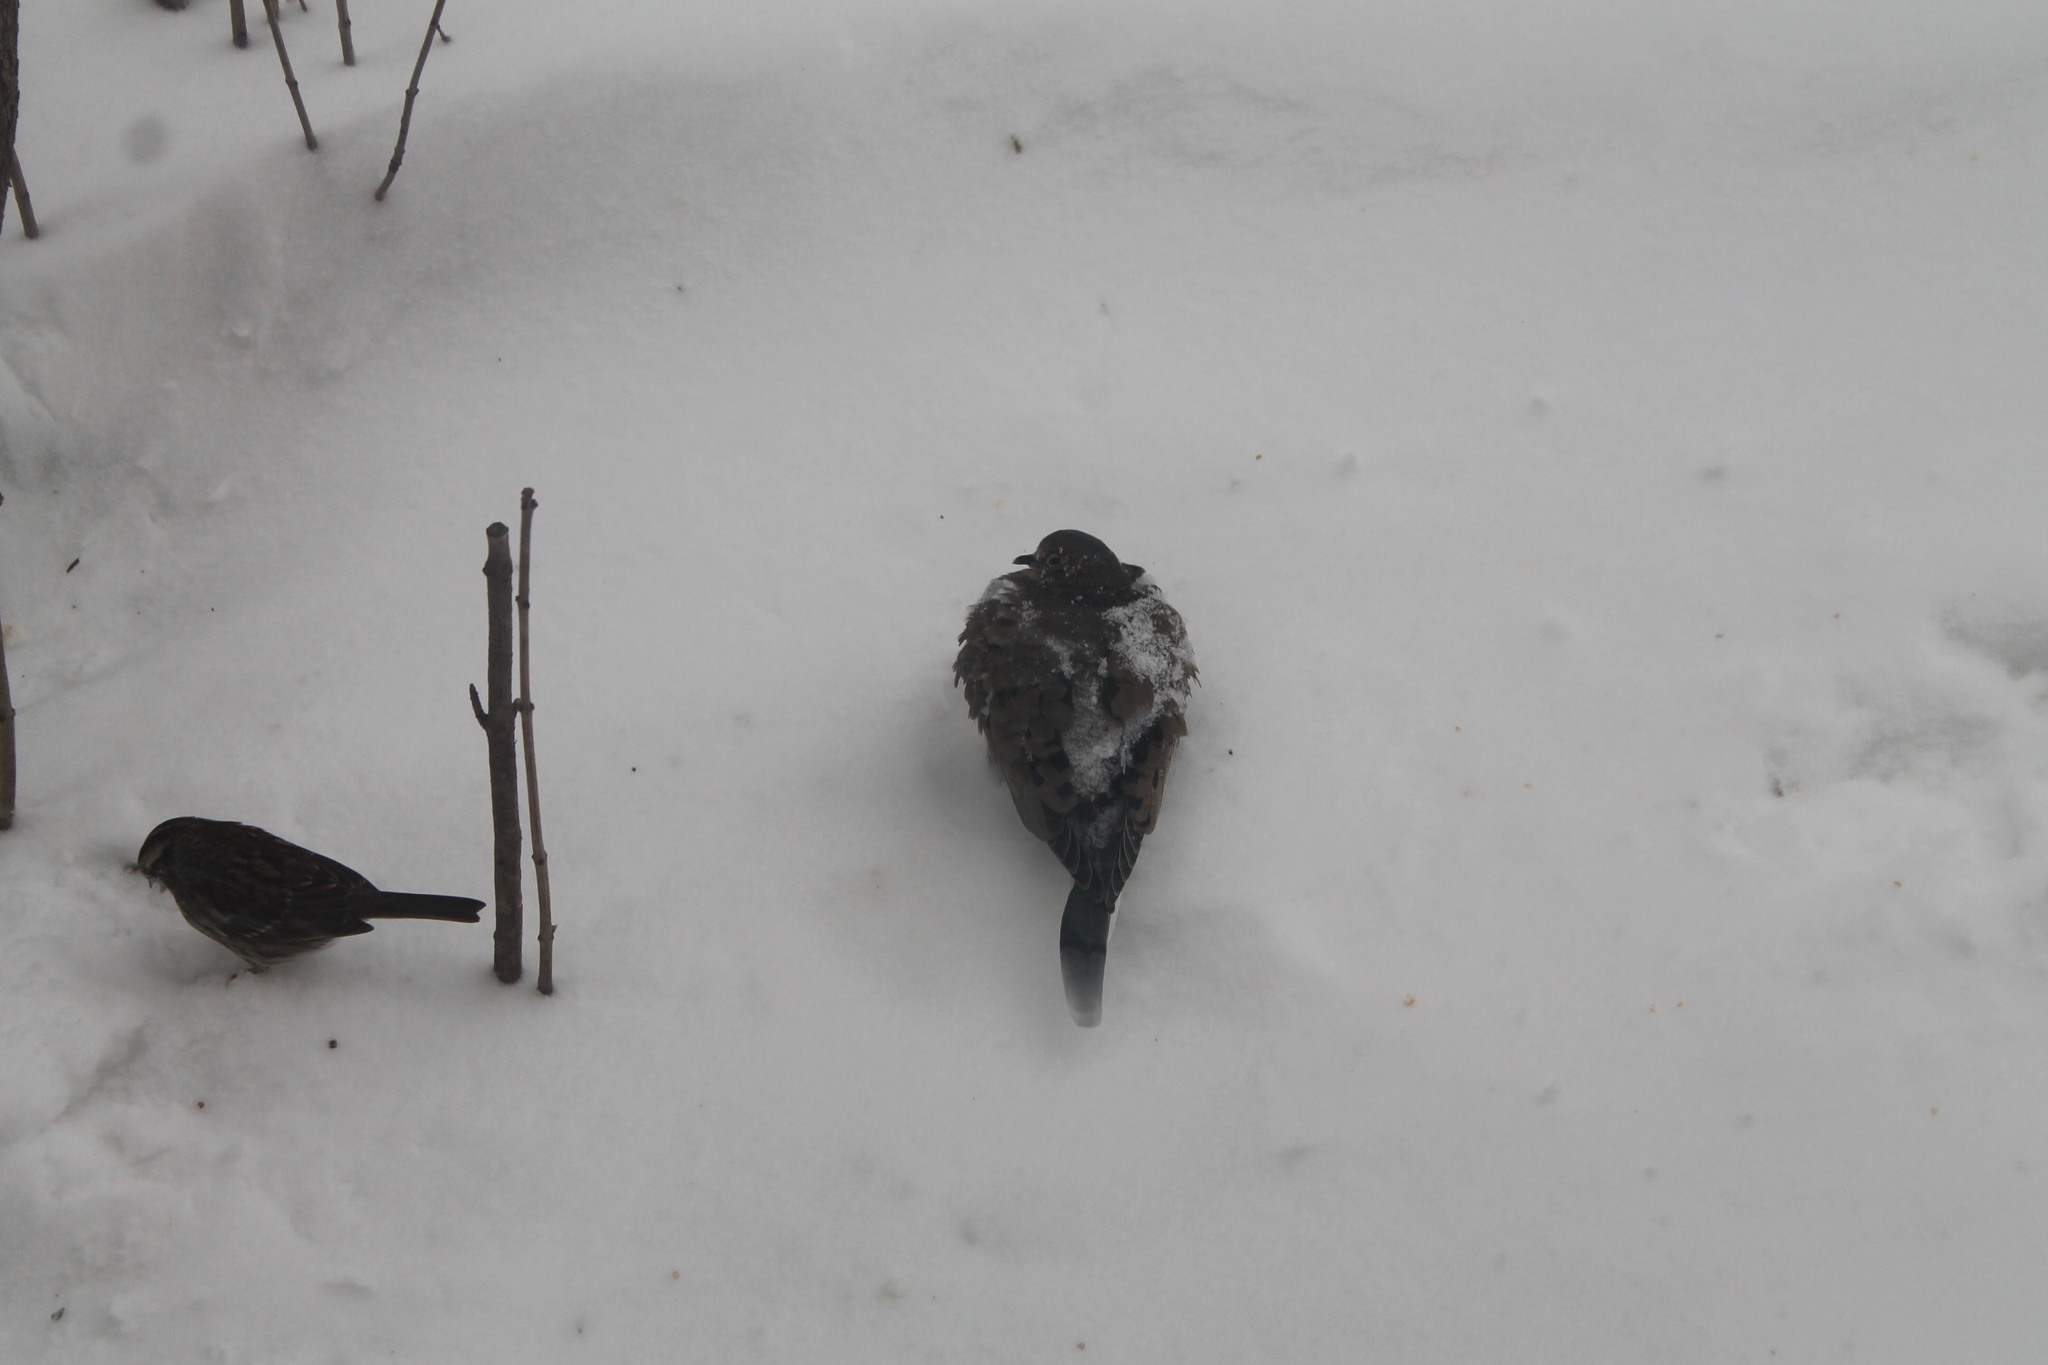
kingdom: Animalia
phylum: Chordata
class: Aves
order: Columbiformes
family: Columbidae
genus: Zenaida
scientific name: Zenaida macroura
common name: Mourning dove
